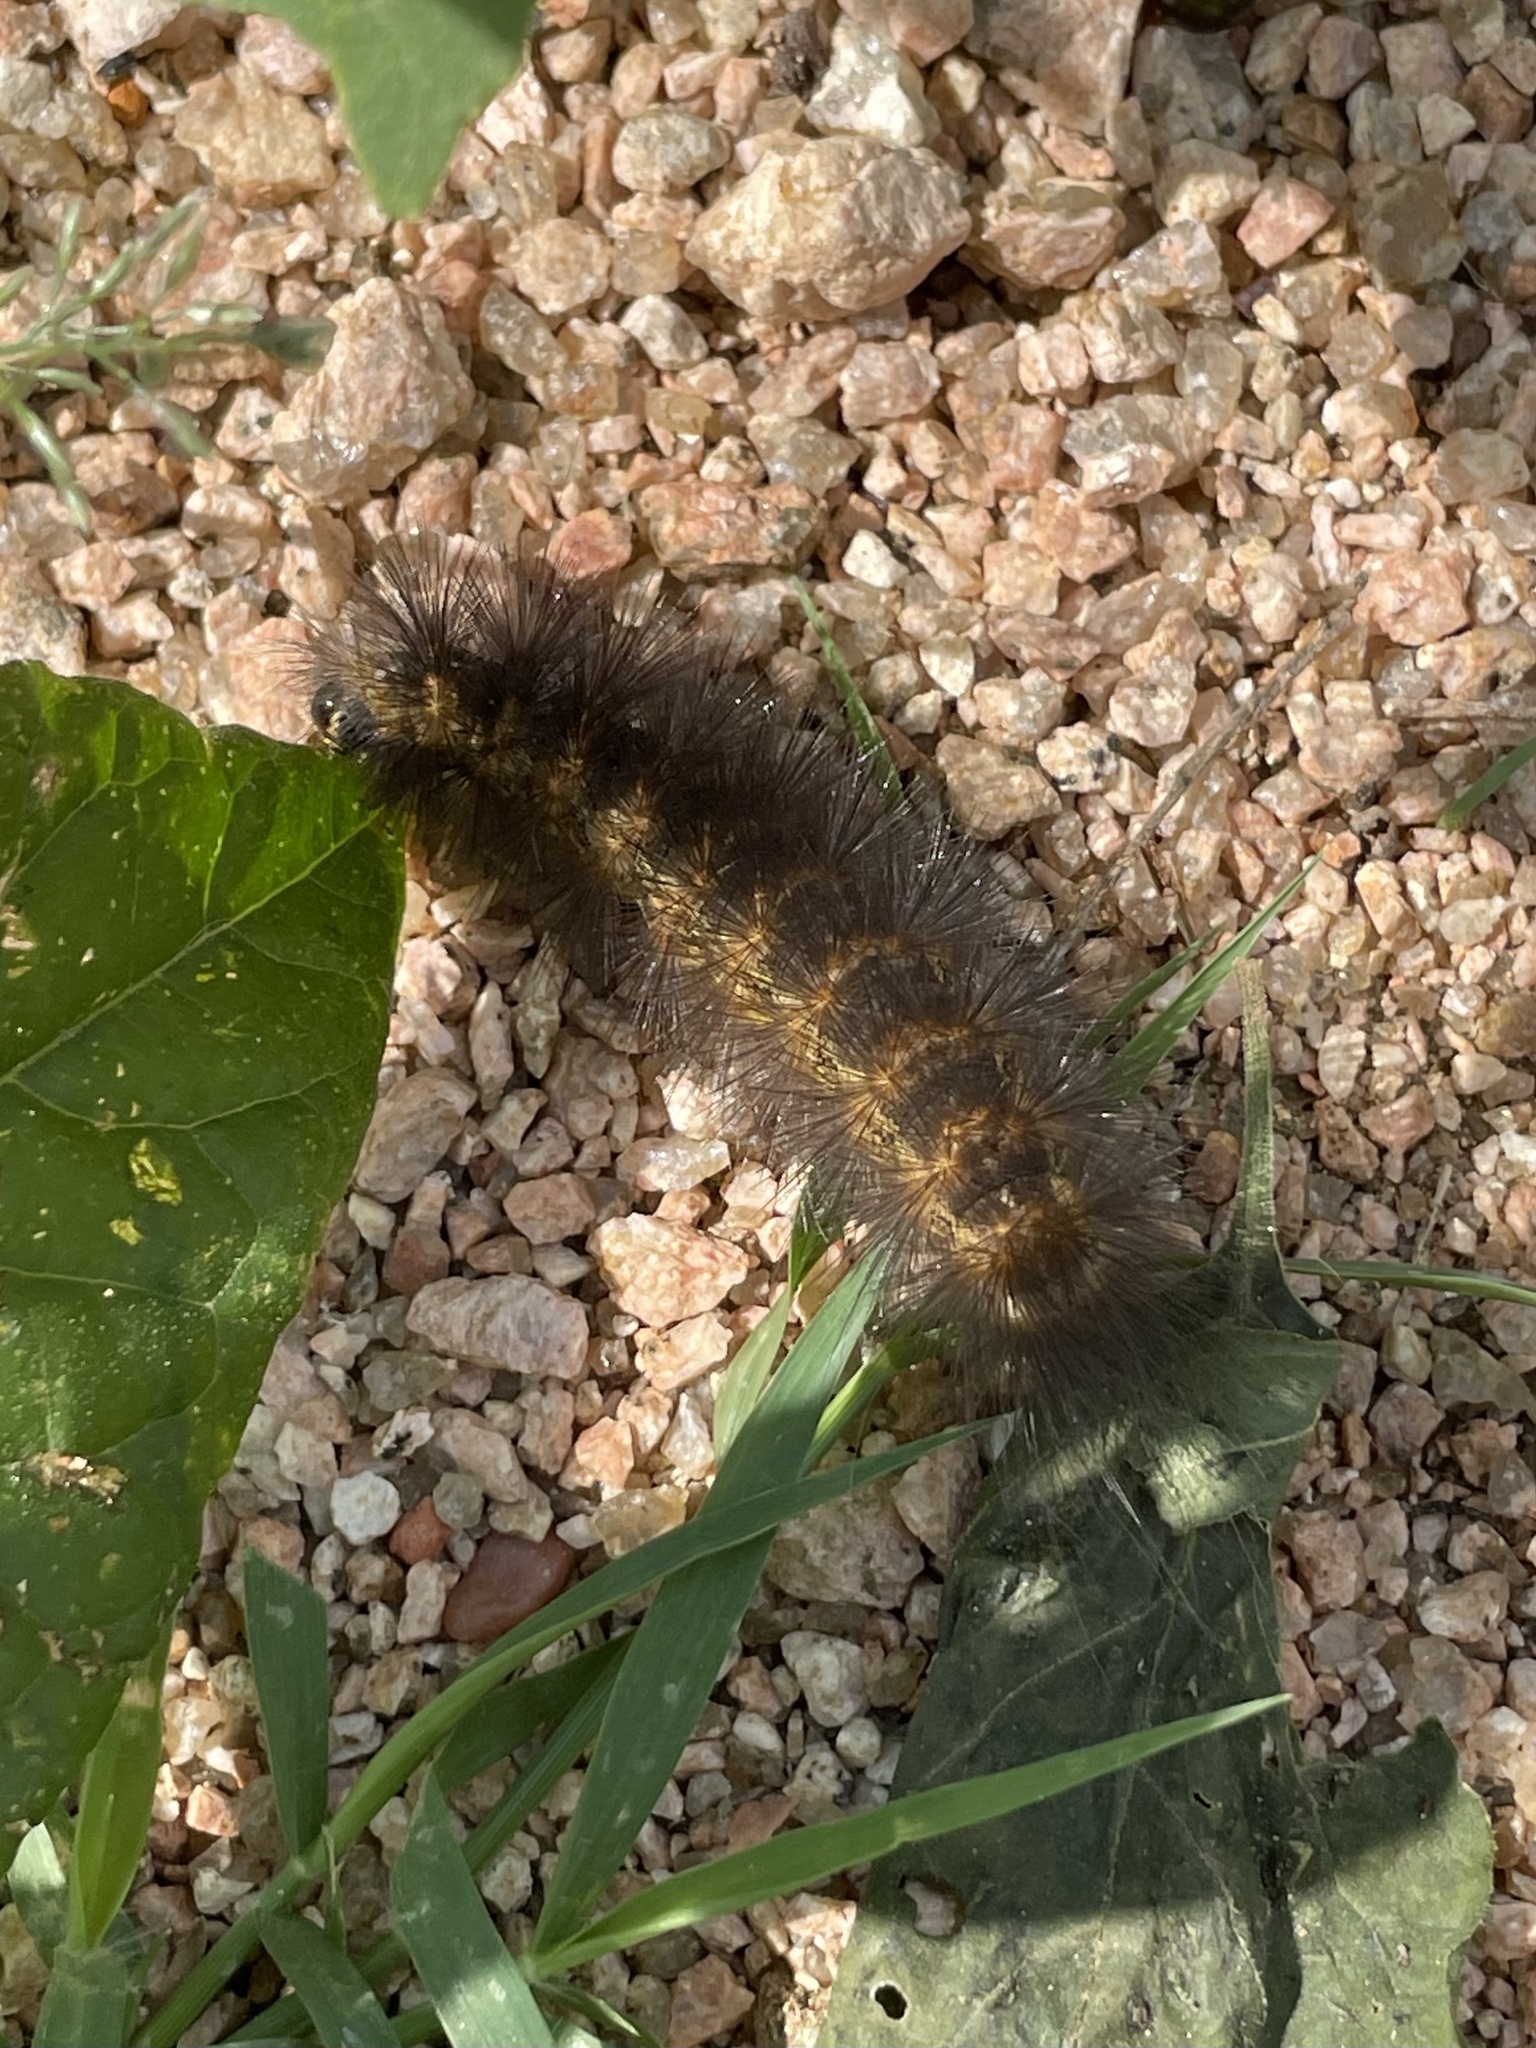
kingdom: Animalia
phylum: Arthropoda
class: Insecta
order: Lepidoptera
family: Erebidae
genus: Estigmene
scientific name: Estigmene acrea
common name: Salt marsh moth
